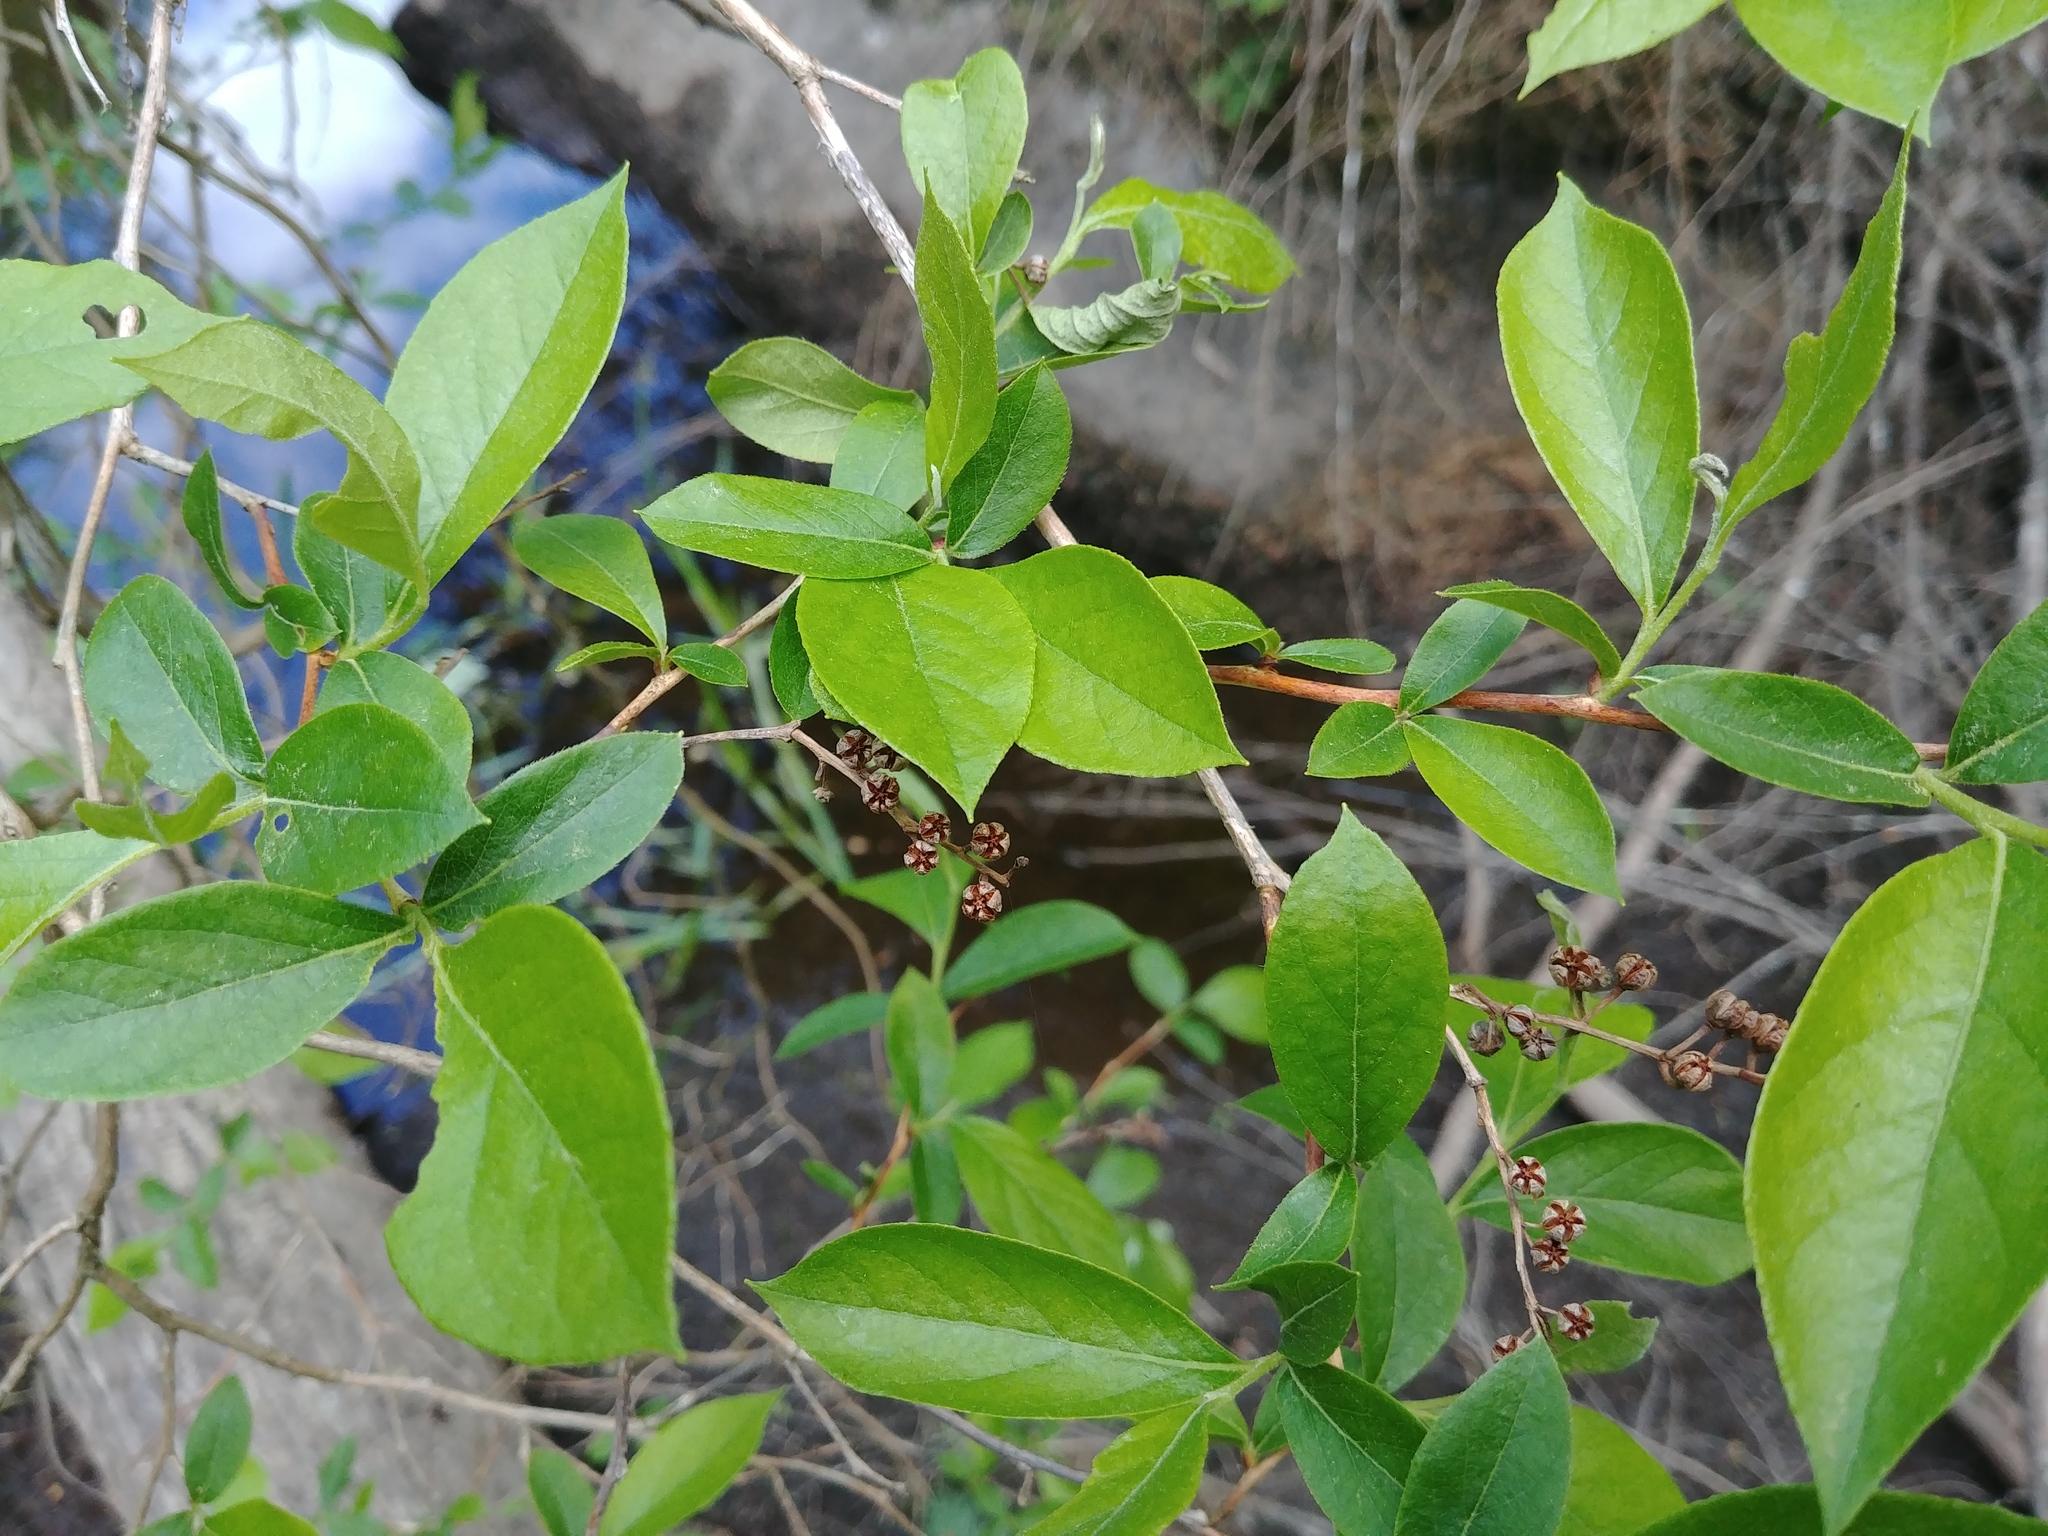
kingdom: Plantae
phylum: Tracheophyta
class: Magnoliopsida
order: Ericales
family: Ericaceae
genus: Lyonia
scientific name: Lyonia ligustrina
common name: Maleberry
